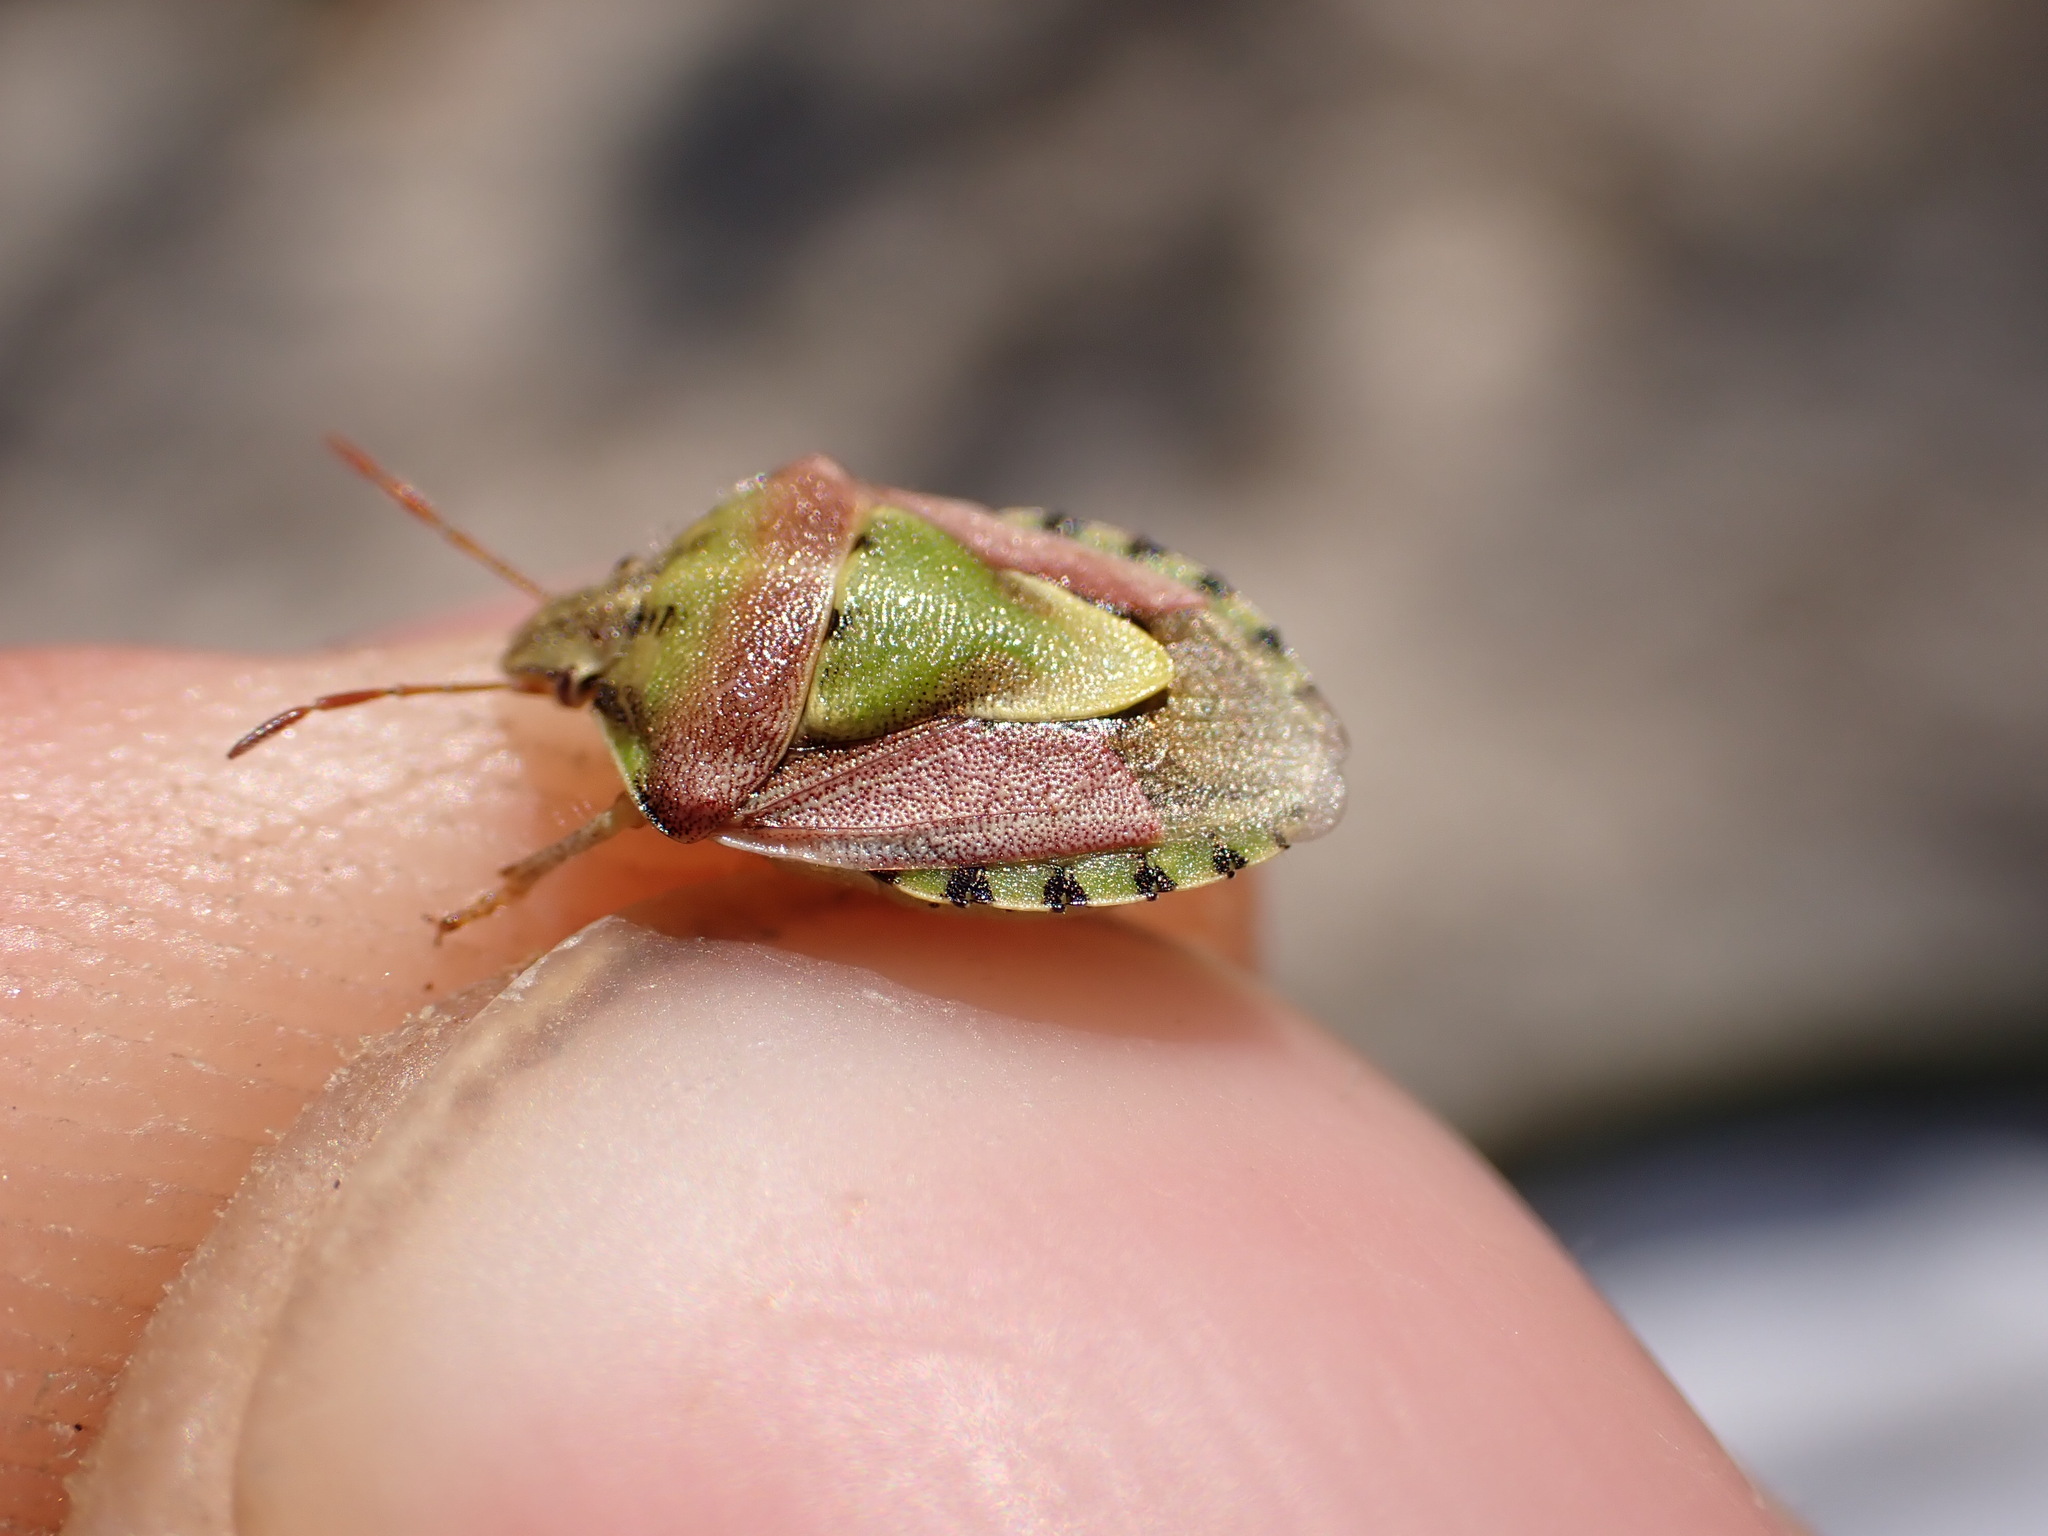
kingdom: Animalia
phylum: Arthropoda
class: Insecta
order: Hemiptera
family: Pentatomidae
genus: Antheminia
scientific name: Antheminia lunulata
